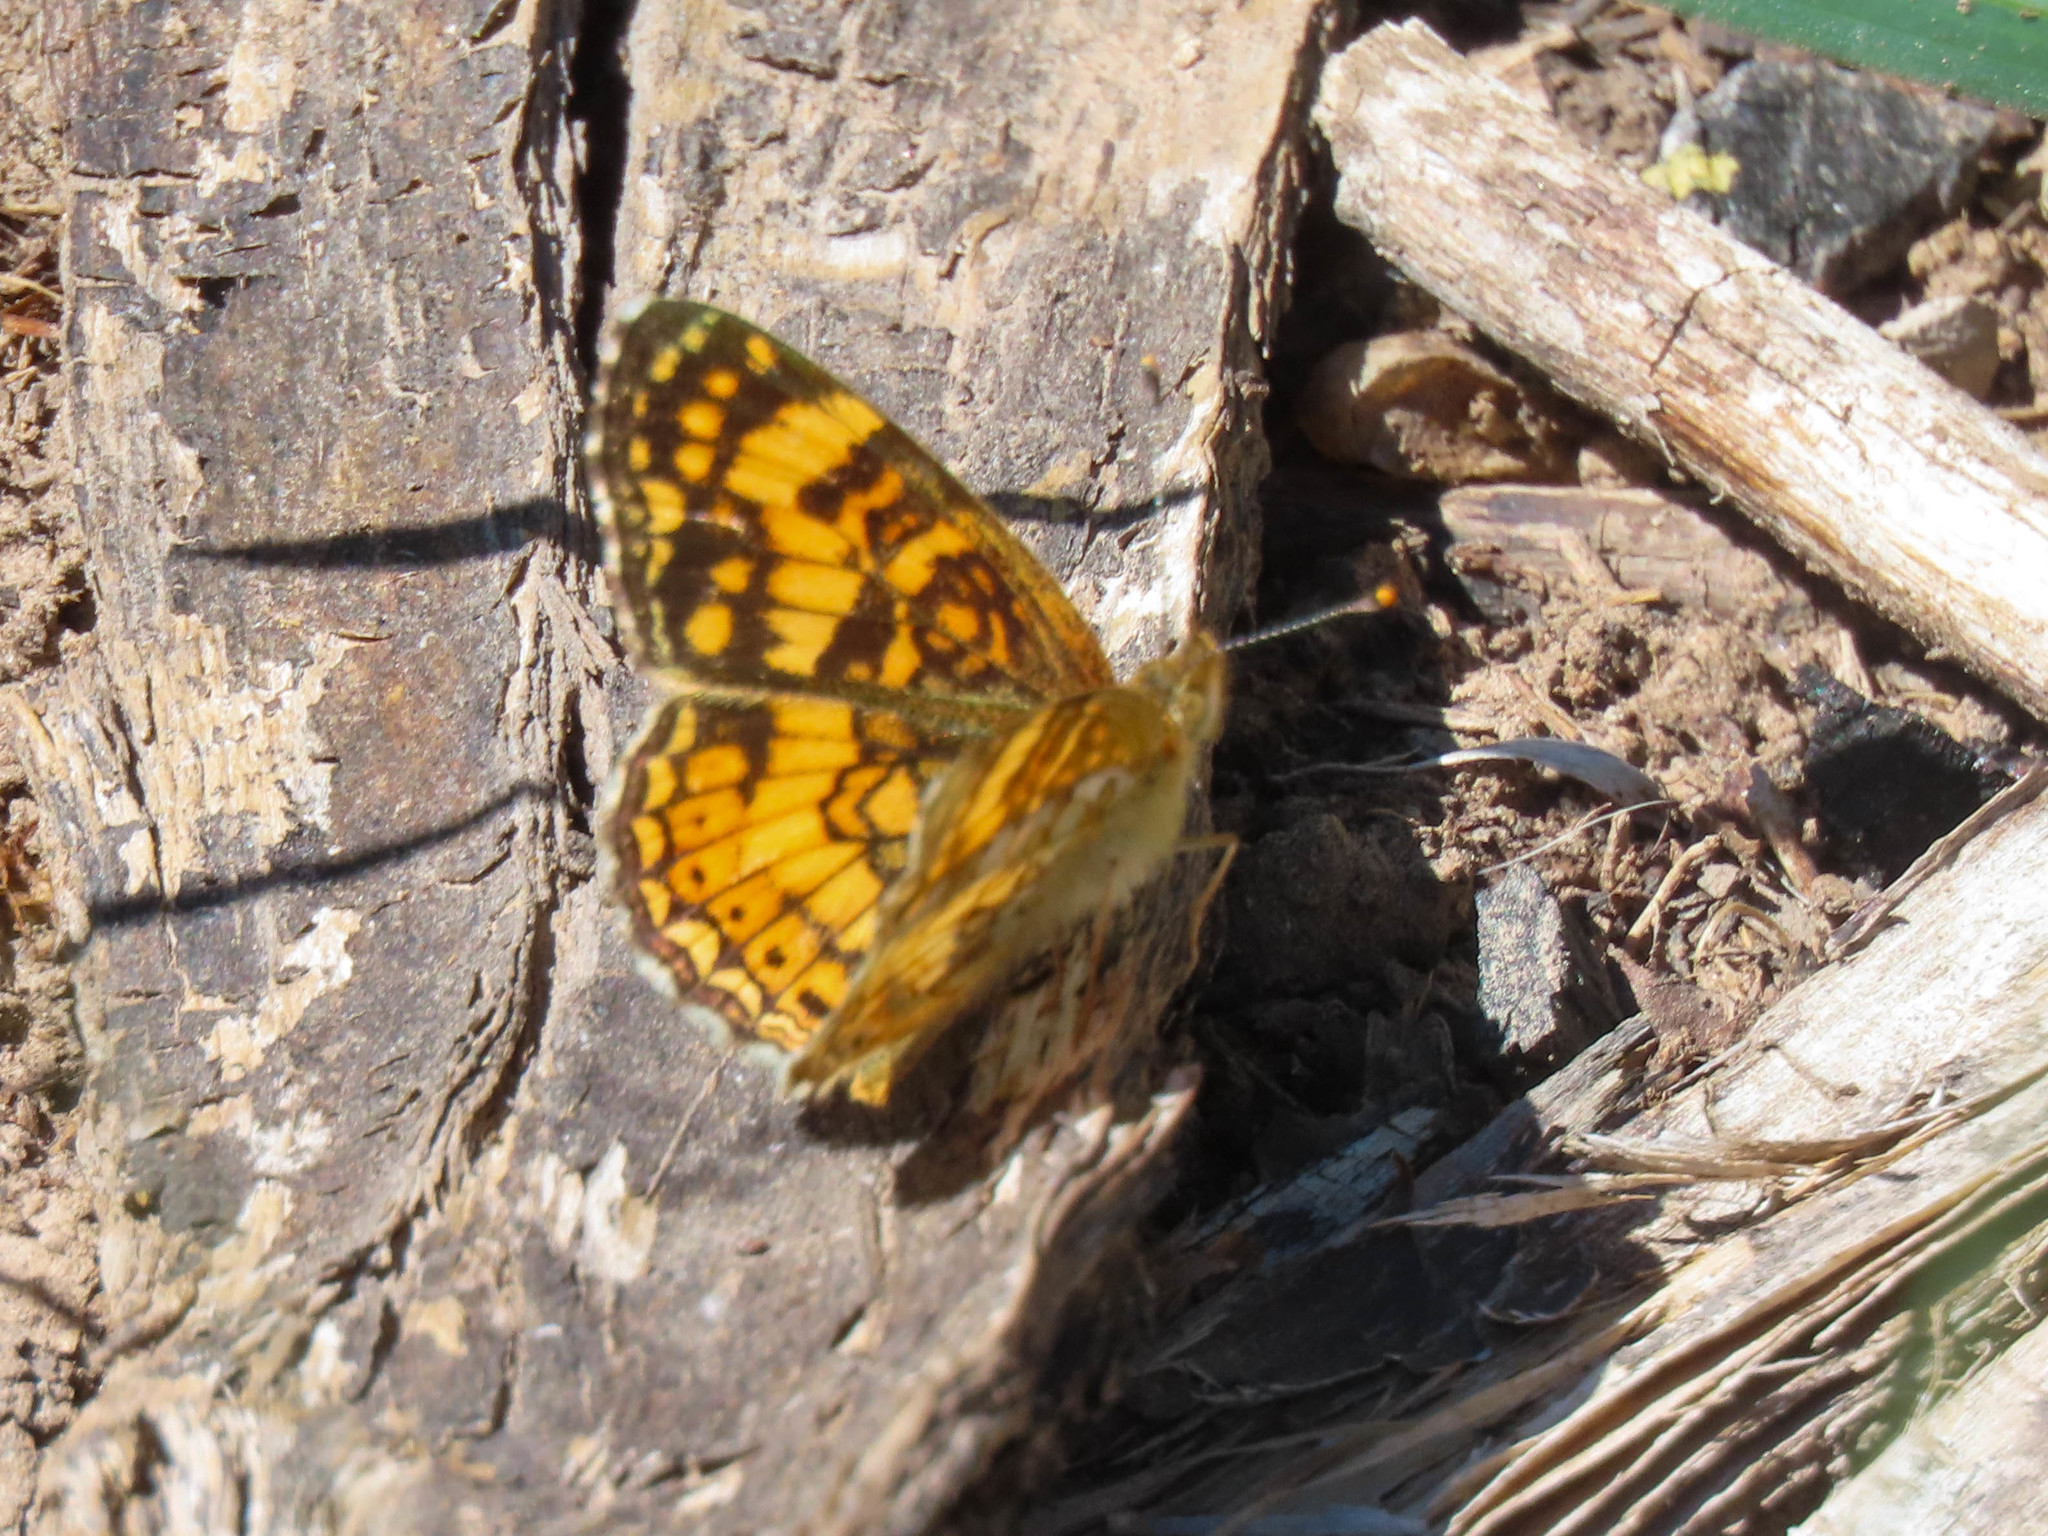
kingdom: Animalia
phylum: Arthropoda
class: Insecta
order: Lepidoptera
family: Nymphalidae
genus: Eresia
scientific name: Eresia aveyrona
